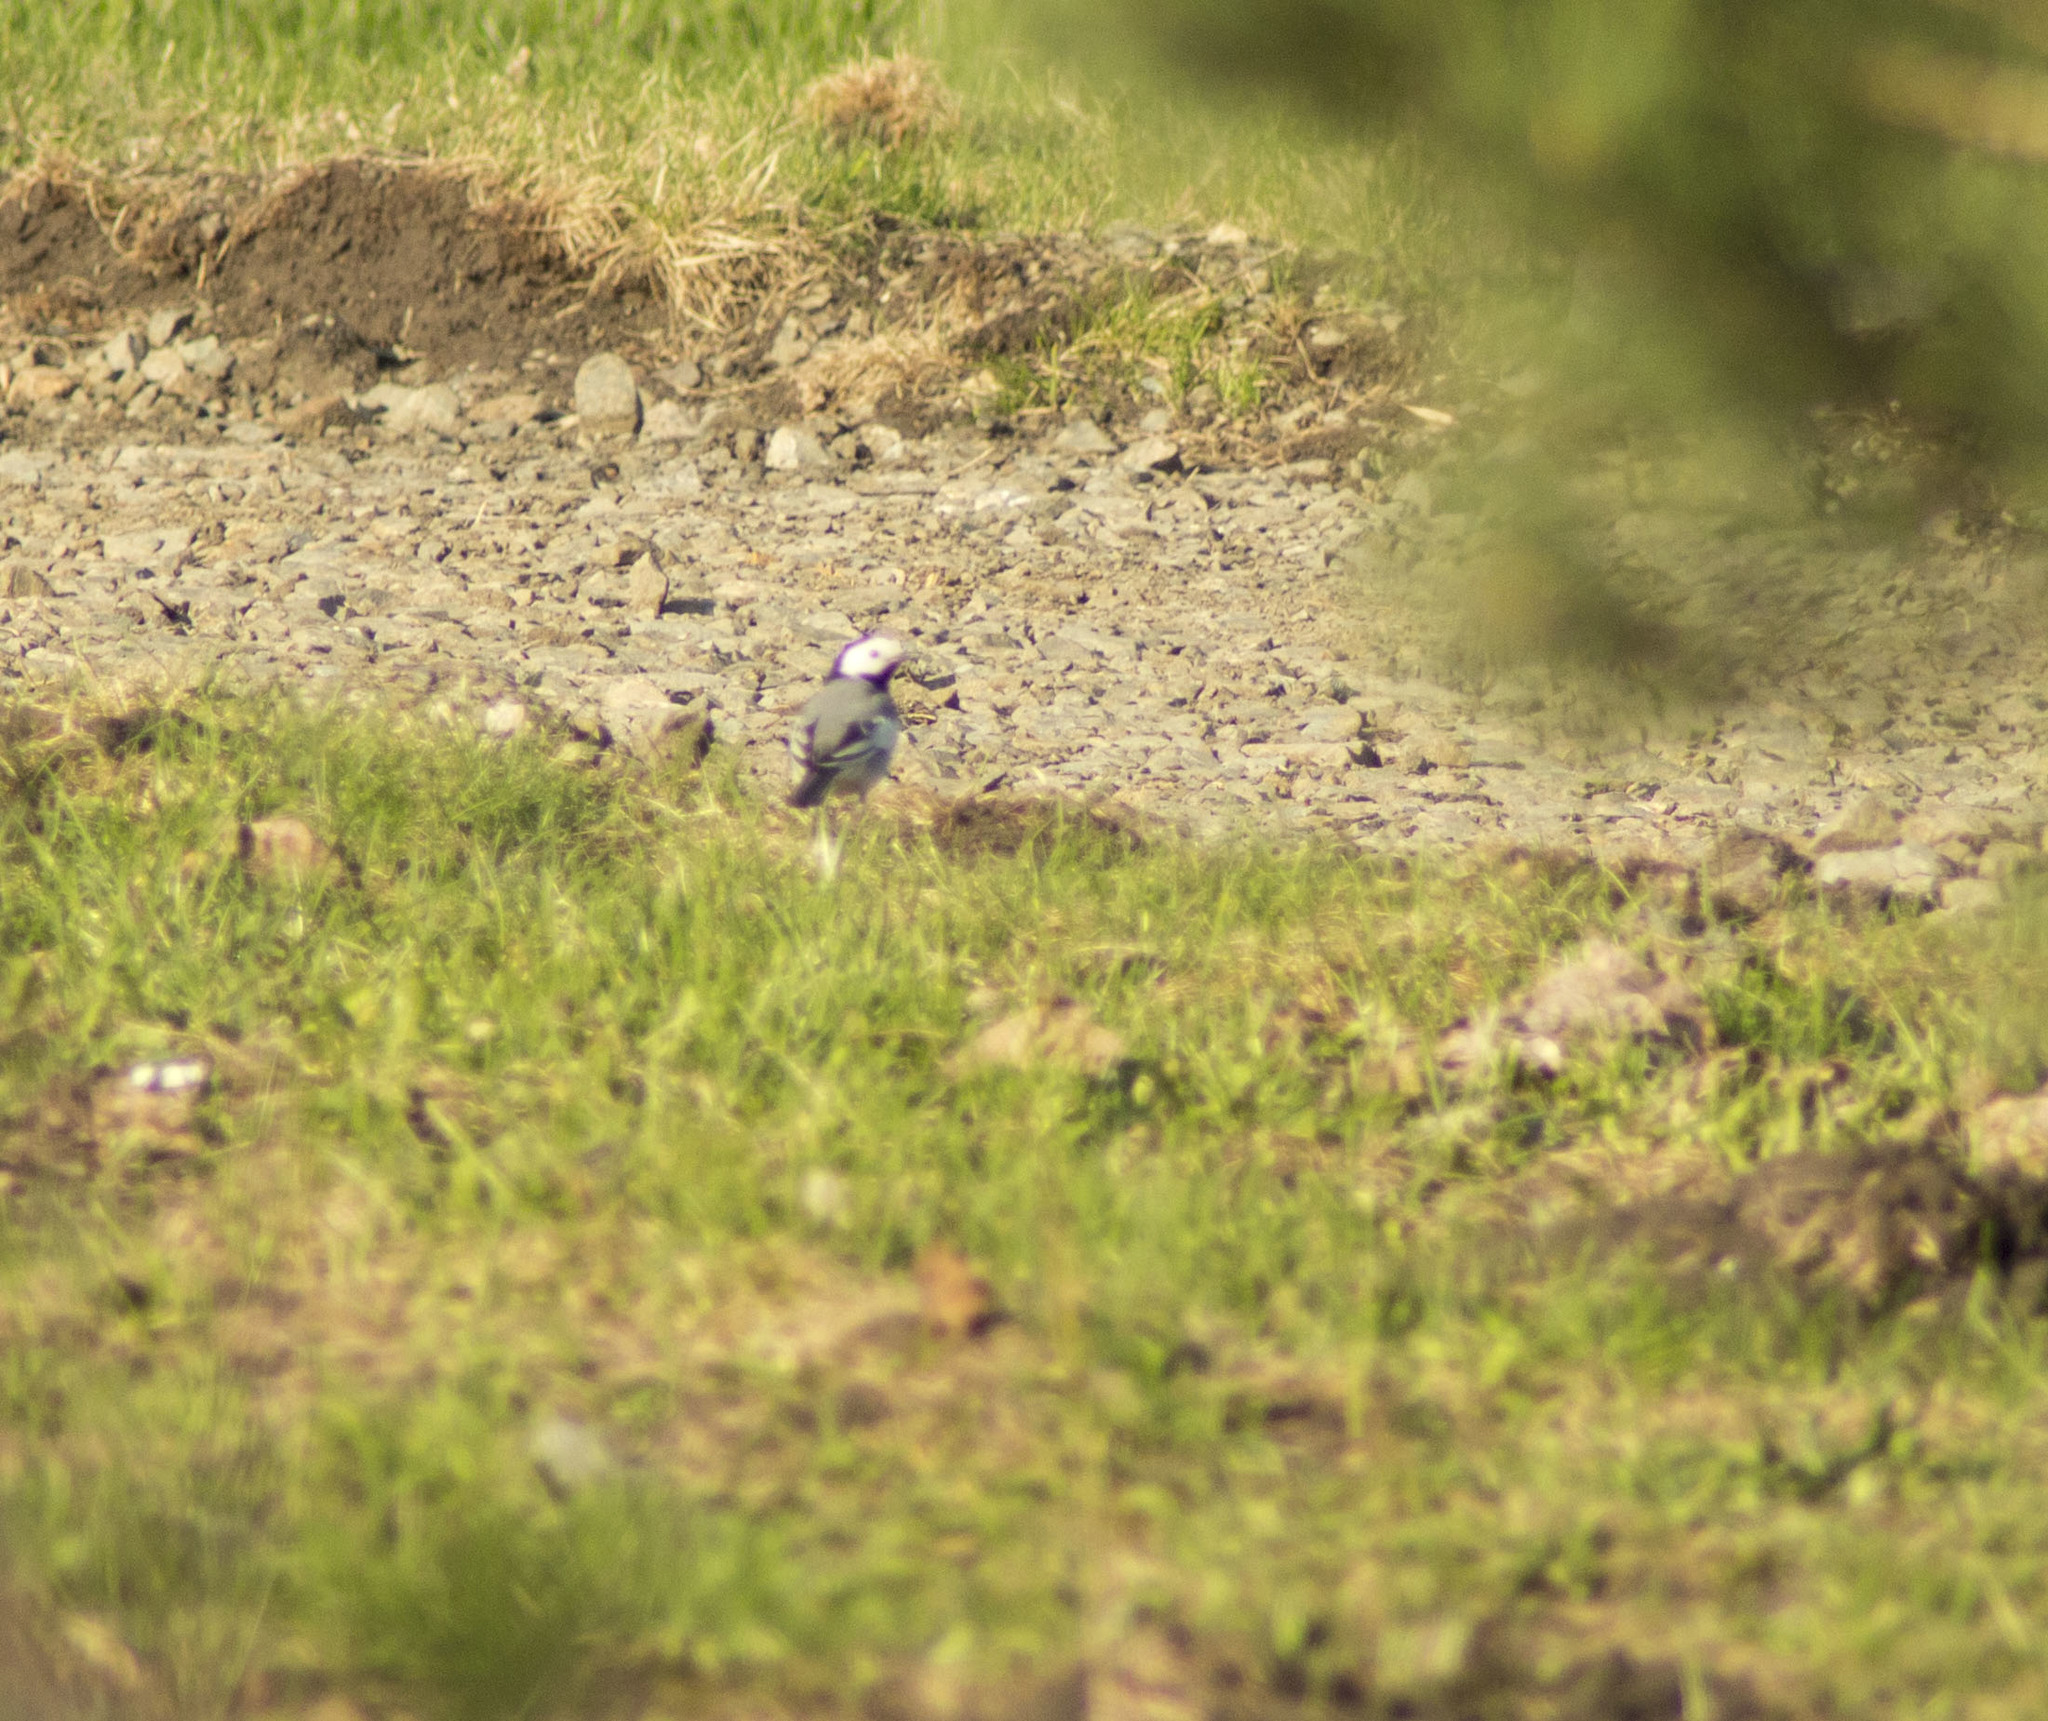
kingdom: Animalia
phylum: Chordata
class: Aves
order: Passeriformes
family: Motacillidae
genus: Motacilla
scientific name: Motacilla alba
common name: White wagtail
